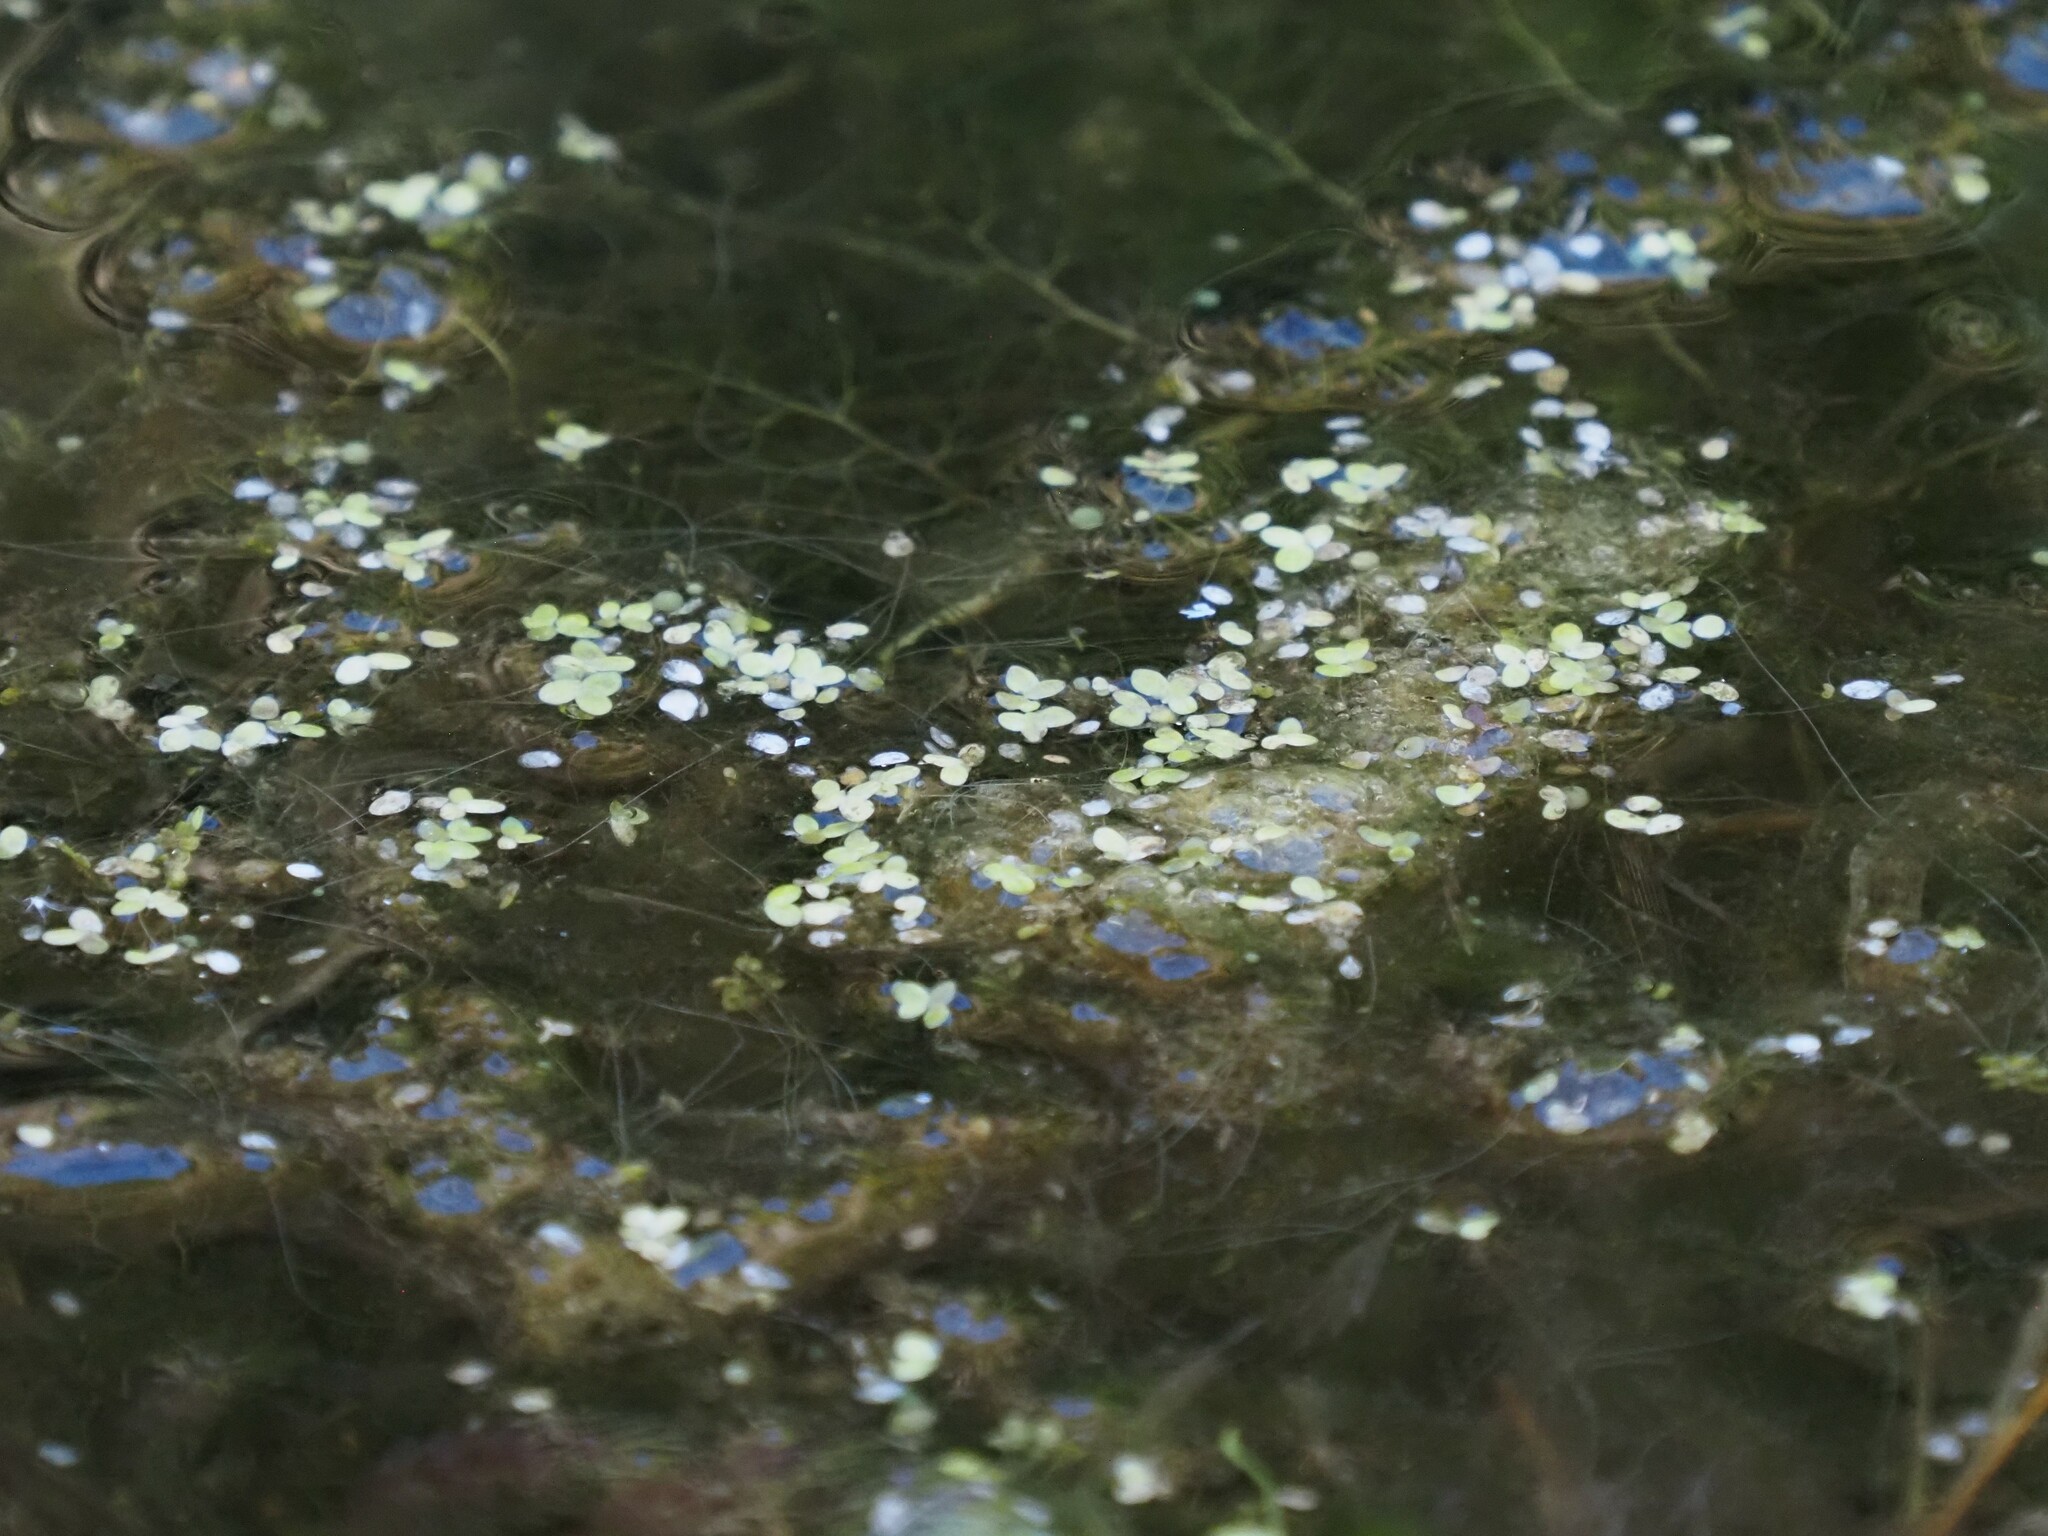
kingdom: Plantae
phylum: Tracheophyta
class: Liliopsida
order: Alismatales
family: Araceae
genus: Lemna
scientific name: Lemna minor
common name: Common duckweed
